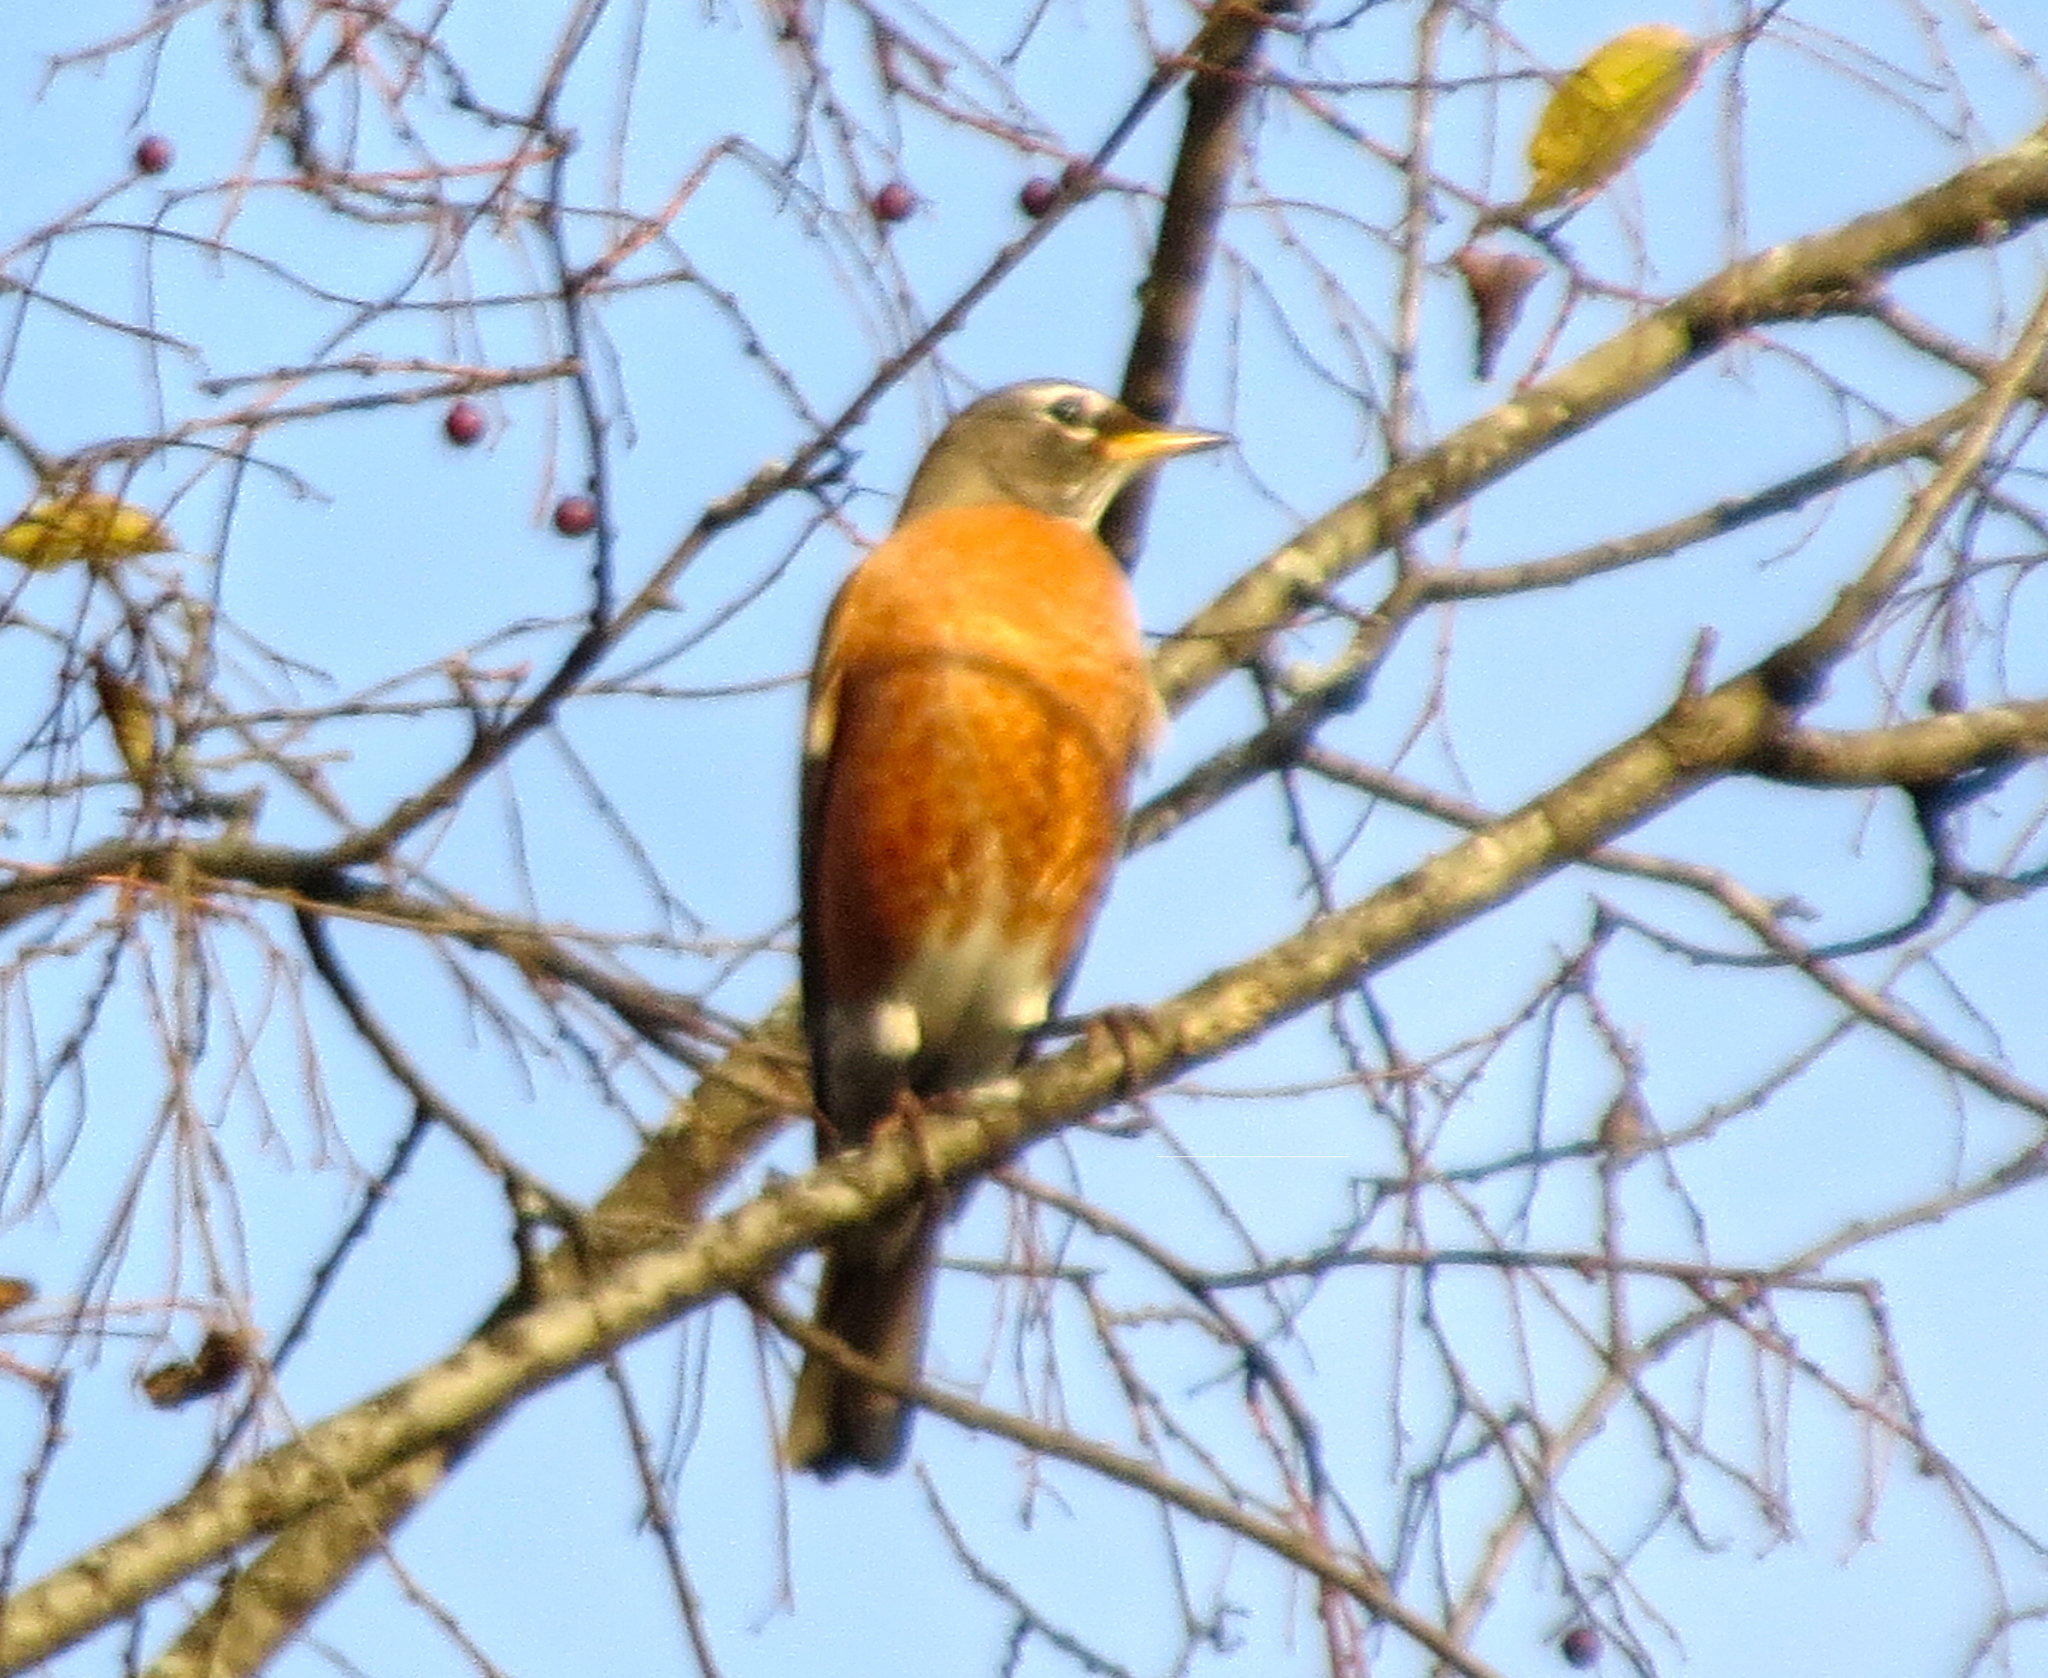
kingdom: Animalia
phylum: Chordata
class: Aves
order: Passeriformes
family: Turdidae
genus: Turdus
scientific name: Turdus migratorius
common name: American robin
